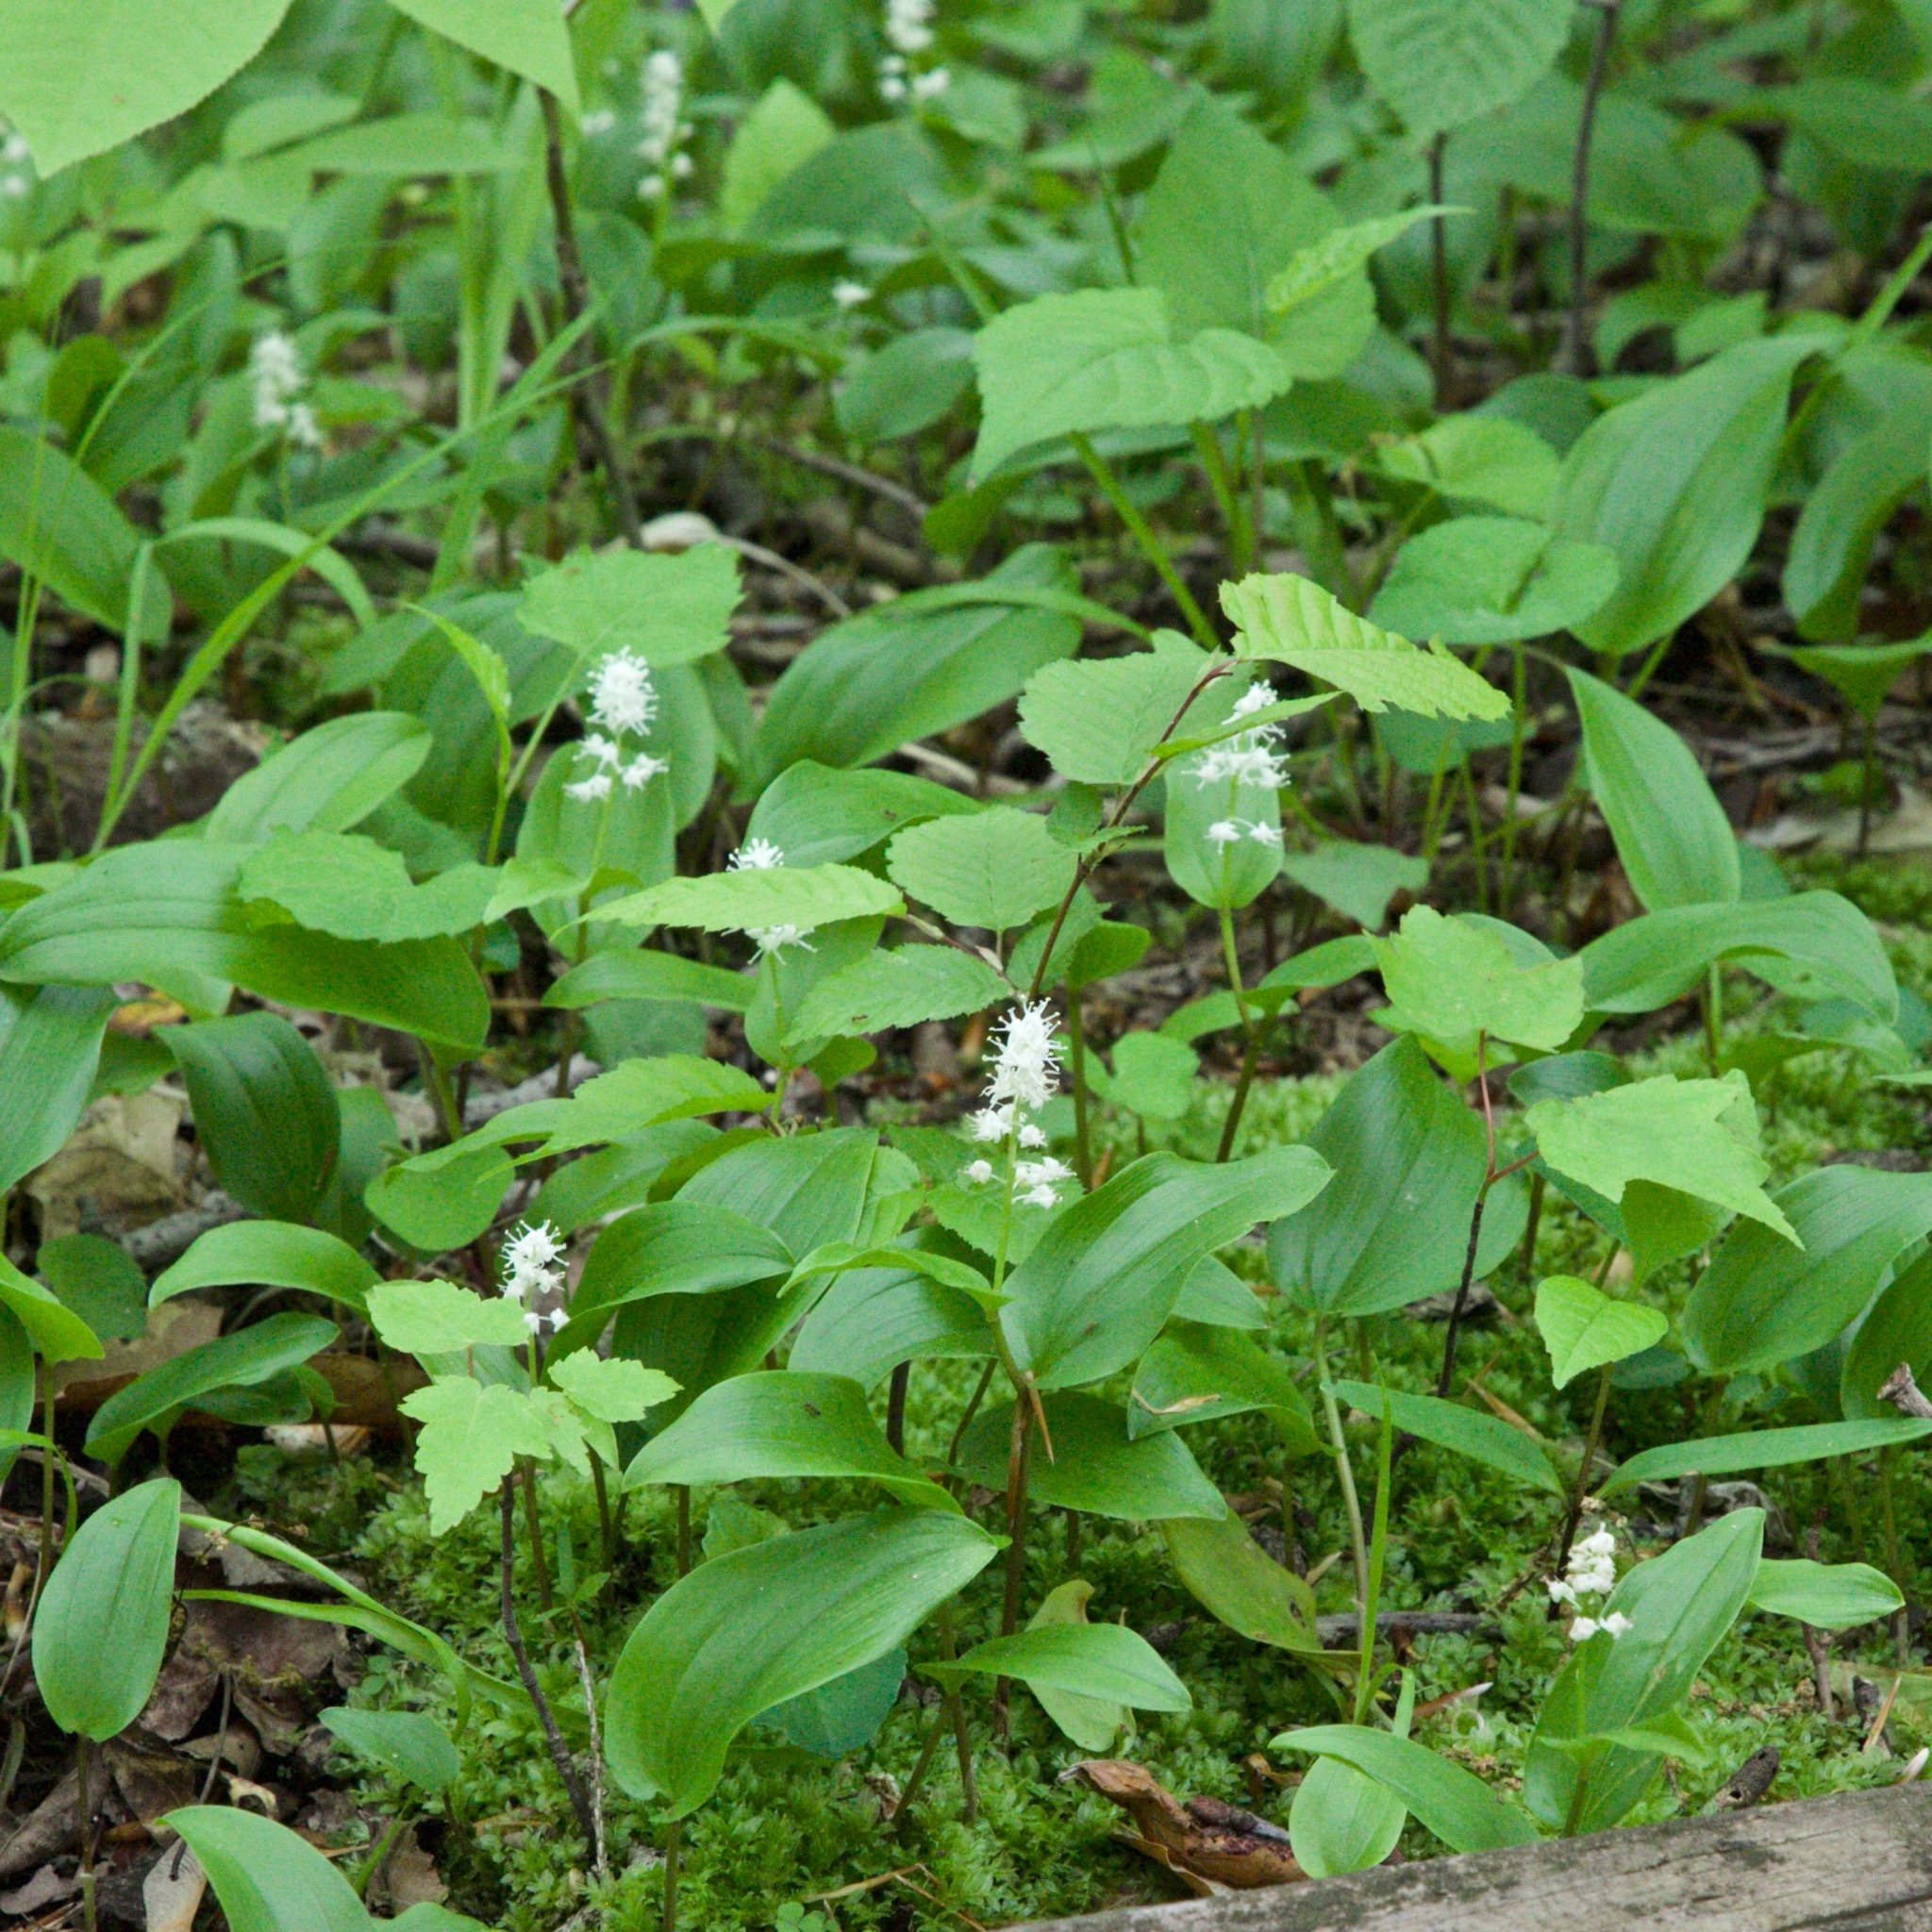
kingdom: Plantae
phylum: Tracheophyta
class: Liliopsida
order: Asparagales
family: Asparagaceae
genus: Maianthemum
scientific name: Maianthemum canadense
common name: False lily-of-the-valley
